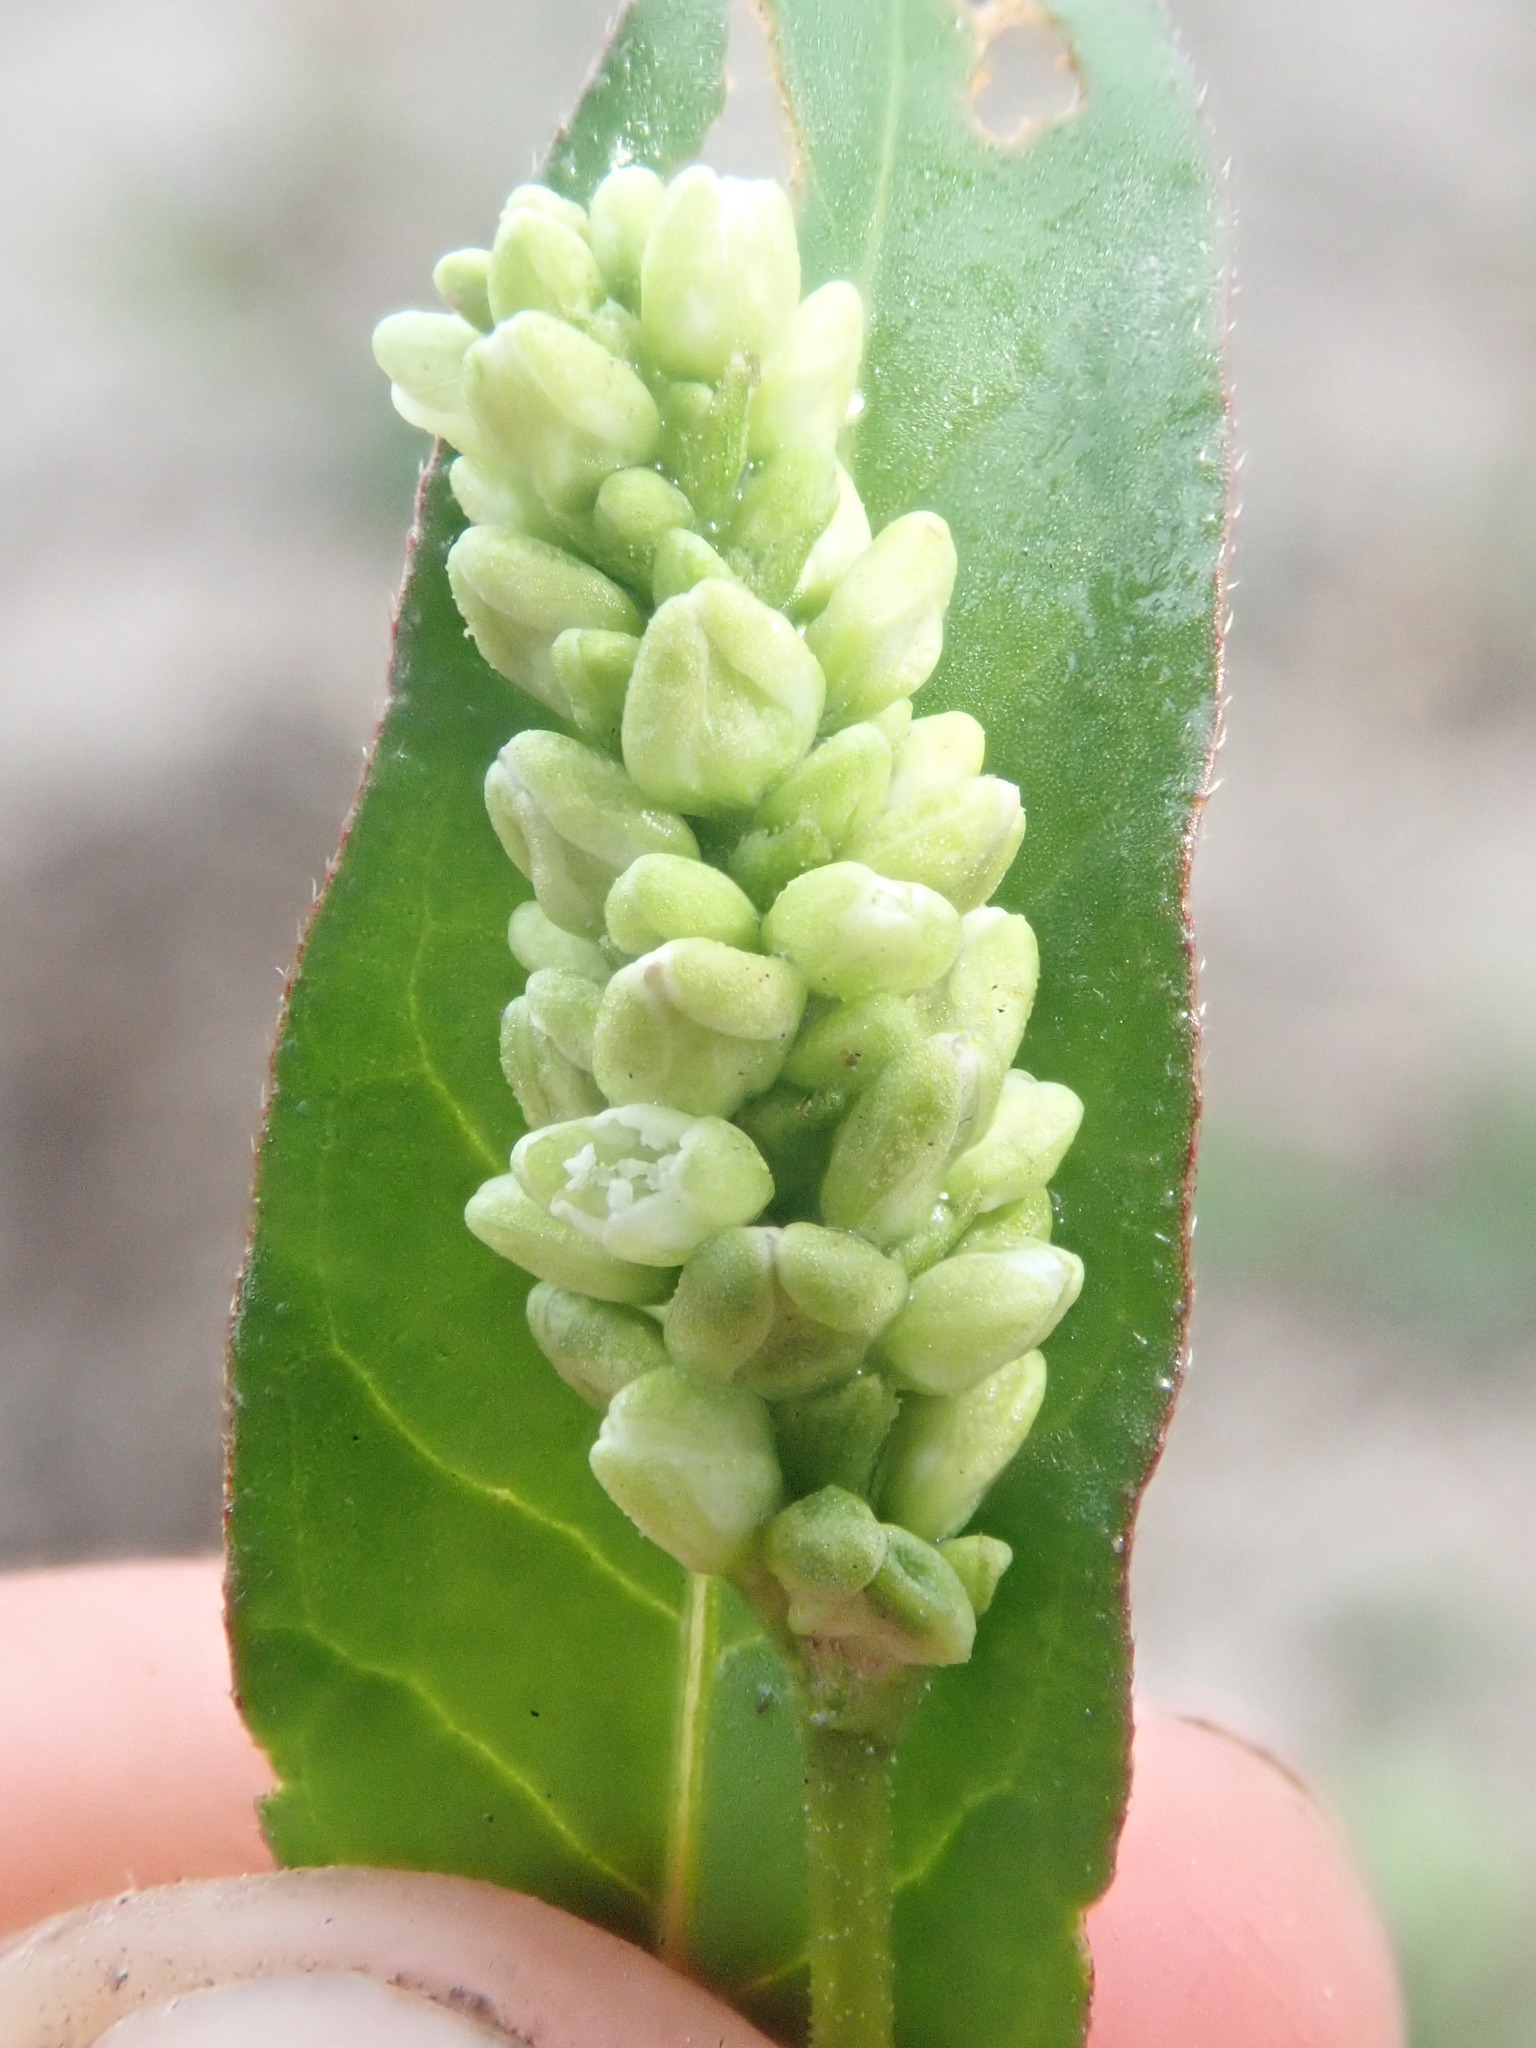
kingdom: Plantae
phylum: Tracheophyta
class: Magnoliopsida
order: Caryophyllales
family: Polygonaceae
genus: Persicaria
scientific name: Persicaria punctata
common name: Dotted smartweed
